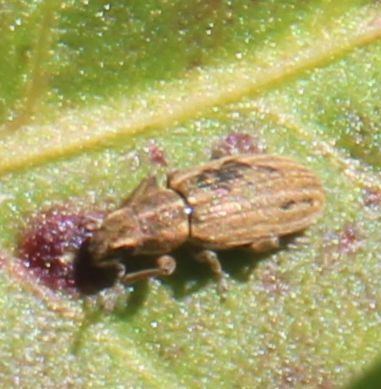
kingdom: Animalia
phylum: Arthropoda
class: Insecta
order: Coleoptera
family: Curculionidae
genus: Sitona
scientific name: Sitona lineatus
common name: Weevil
